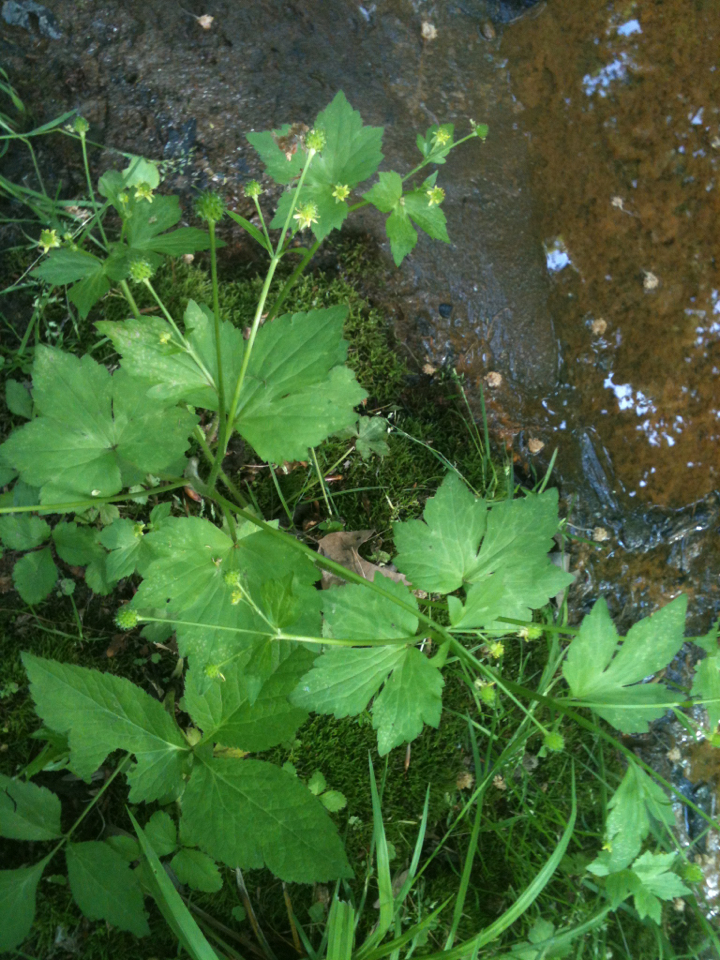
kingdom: Plantae
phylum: Tracheophyta
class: Magnoliopsida
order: Ranunculales
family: Ranunculaceae
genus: Ranunculus
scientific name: Ranunculus recurvatus
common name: Blisterwort
